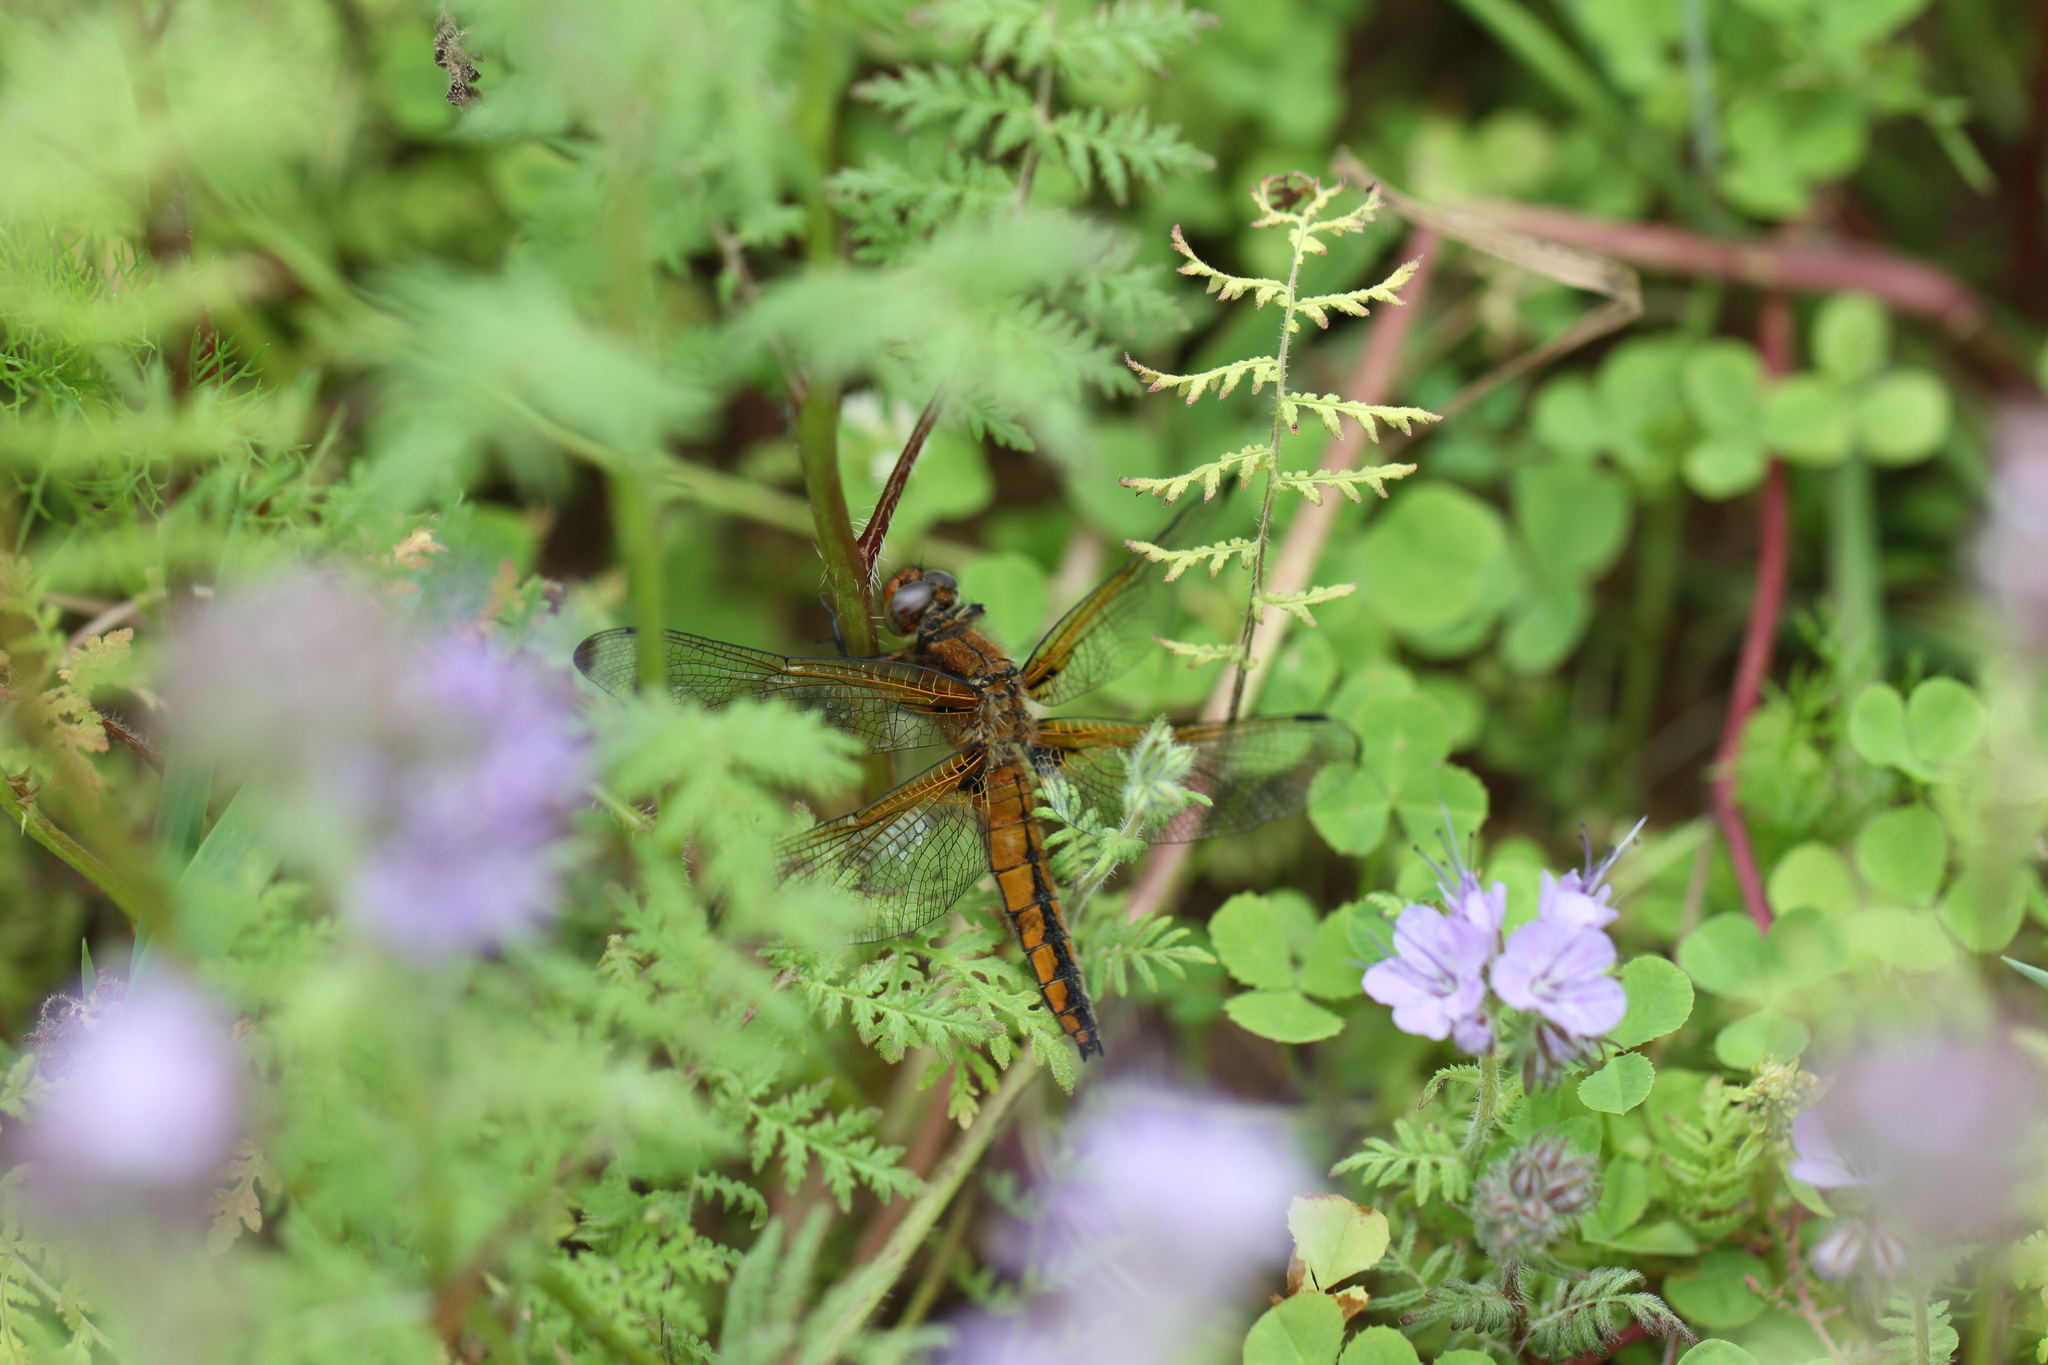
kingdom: Animalia
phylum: Arthropoda
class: Insecta
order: Odonata
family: Libellulidae
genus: Libellula
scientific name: Libellula fulva
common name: Blue chaser
